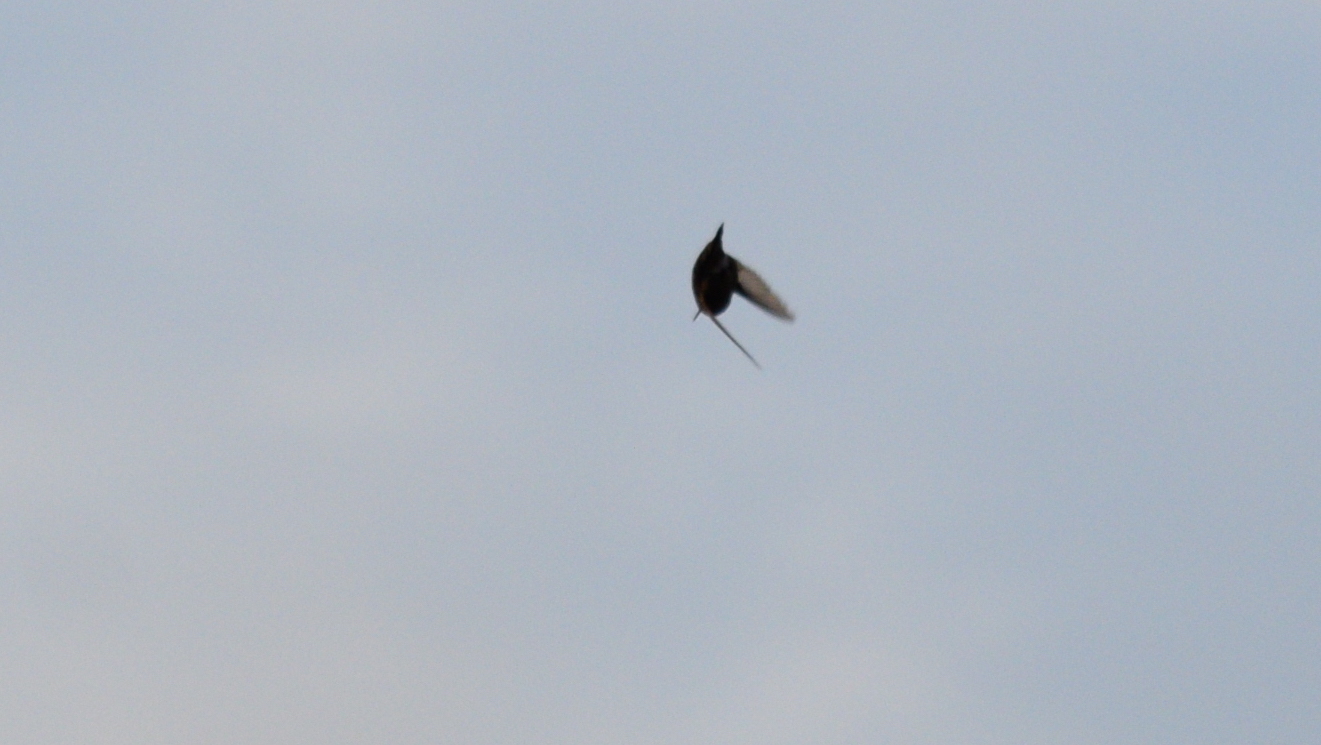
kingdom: Animalia
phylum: Chordata
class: Aves
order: Apodiformes
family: Trochilidae
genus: Archilochus
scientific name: Archilochus colubris
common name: Ruby-throated hummingbird
